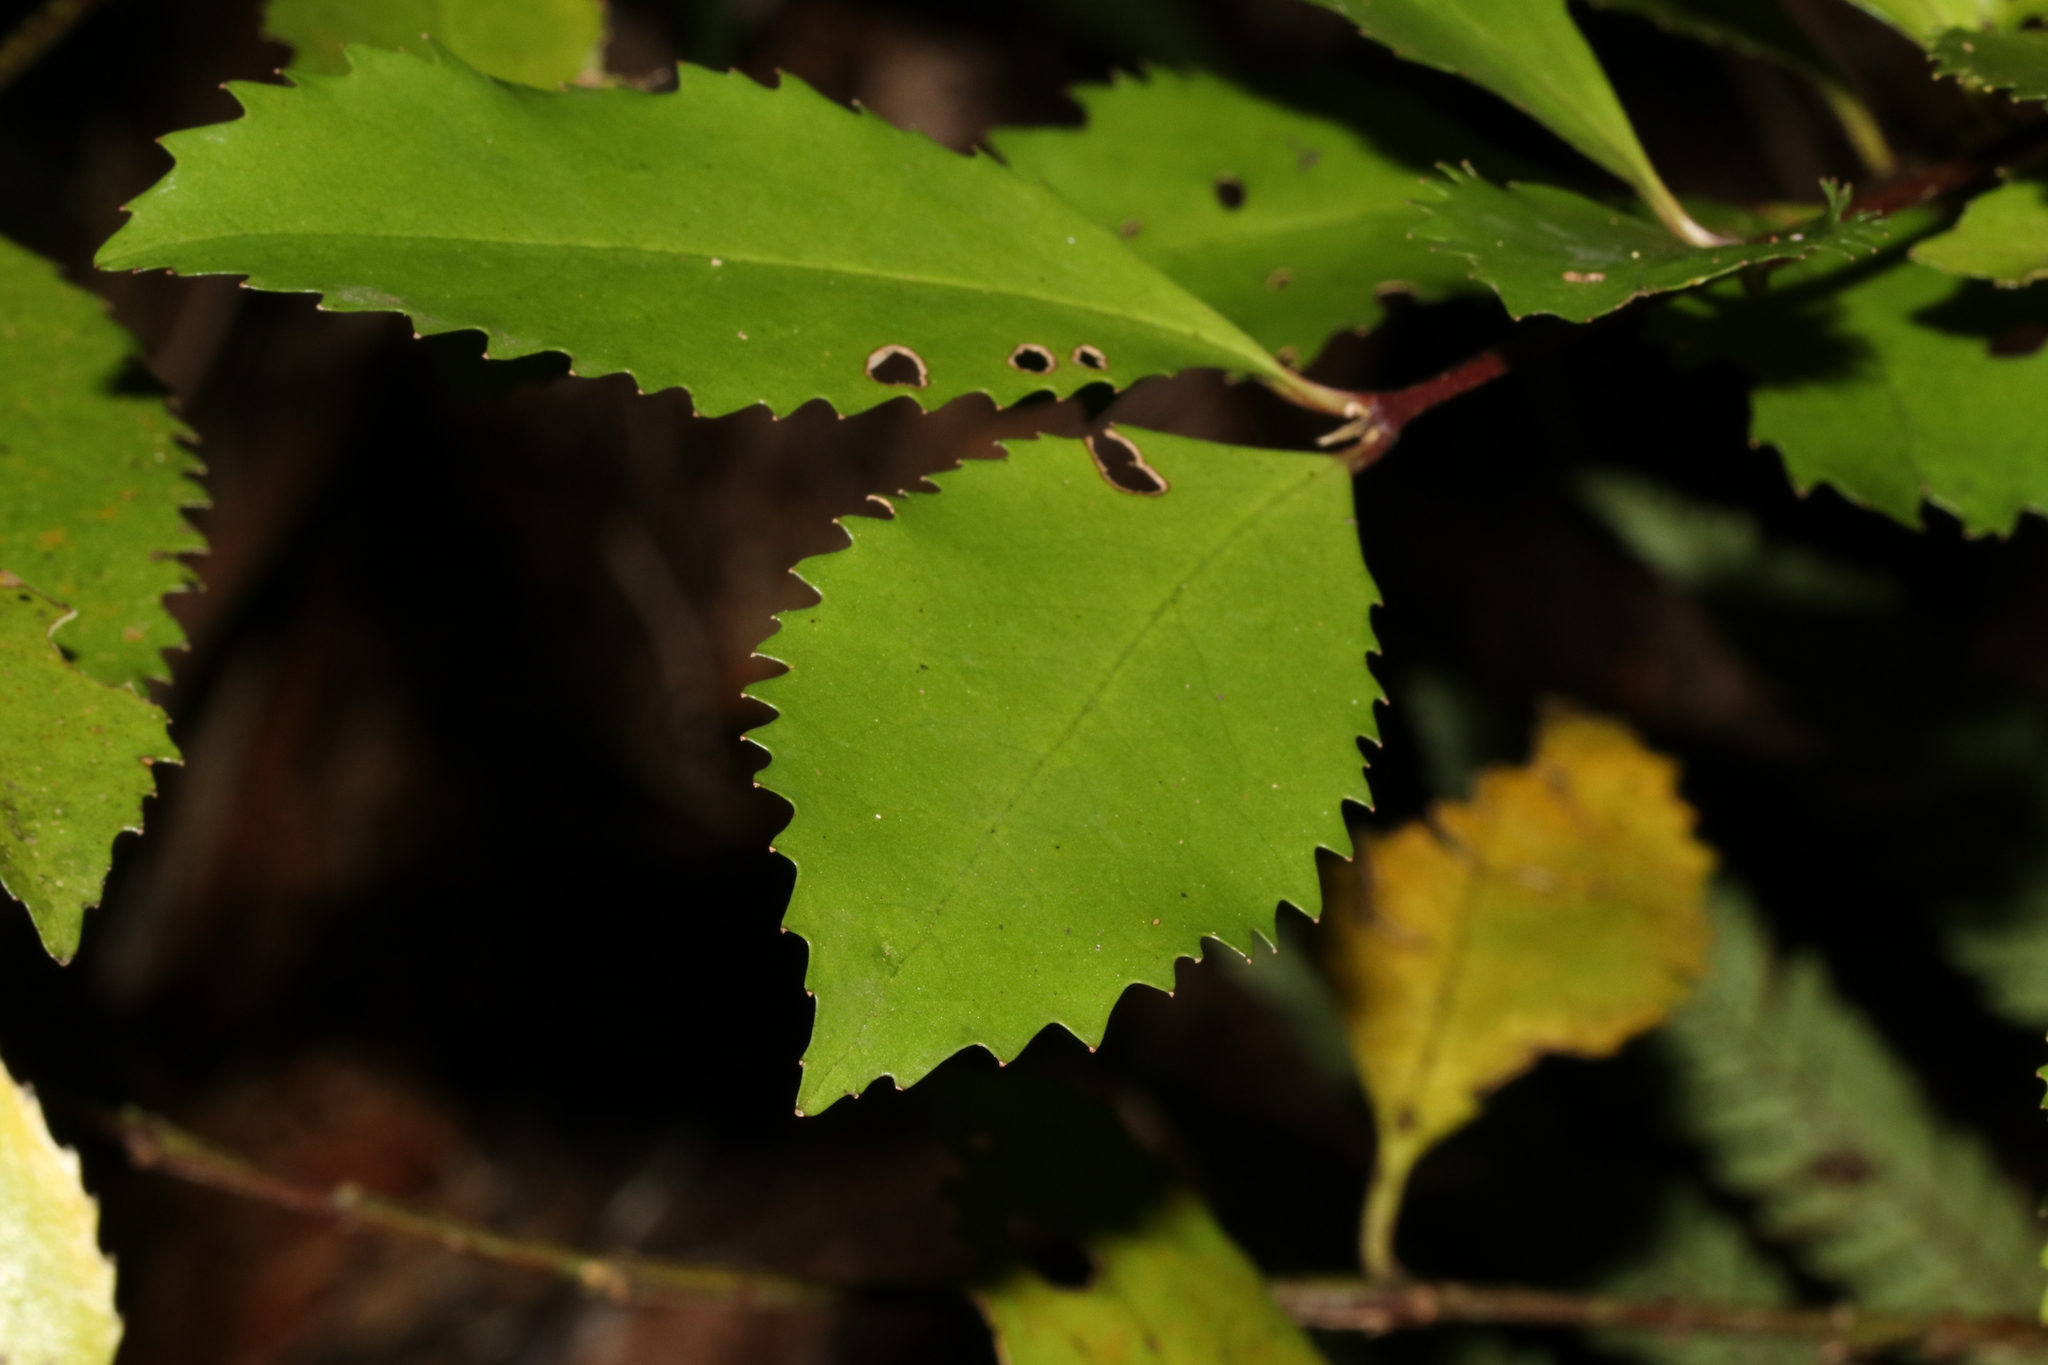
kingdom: Plantae
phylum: Tracheophyta
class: Magnoliopsida
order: Laurales
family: Atherospermataceae
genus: Laurelia
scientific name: Laurelia novae-zelandiae
